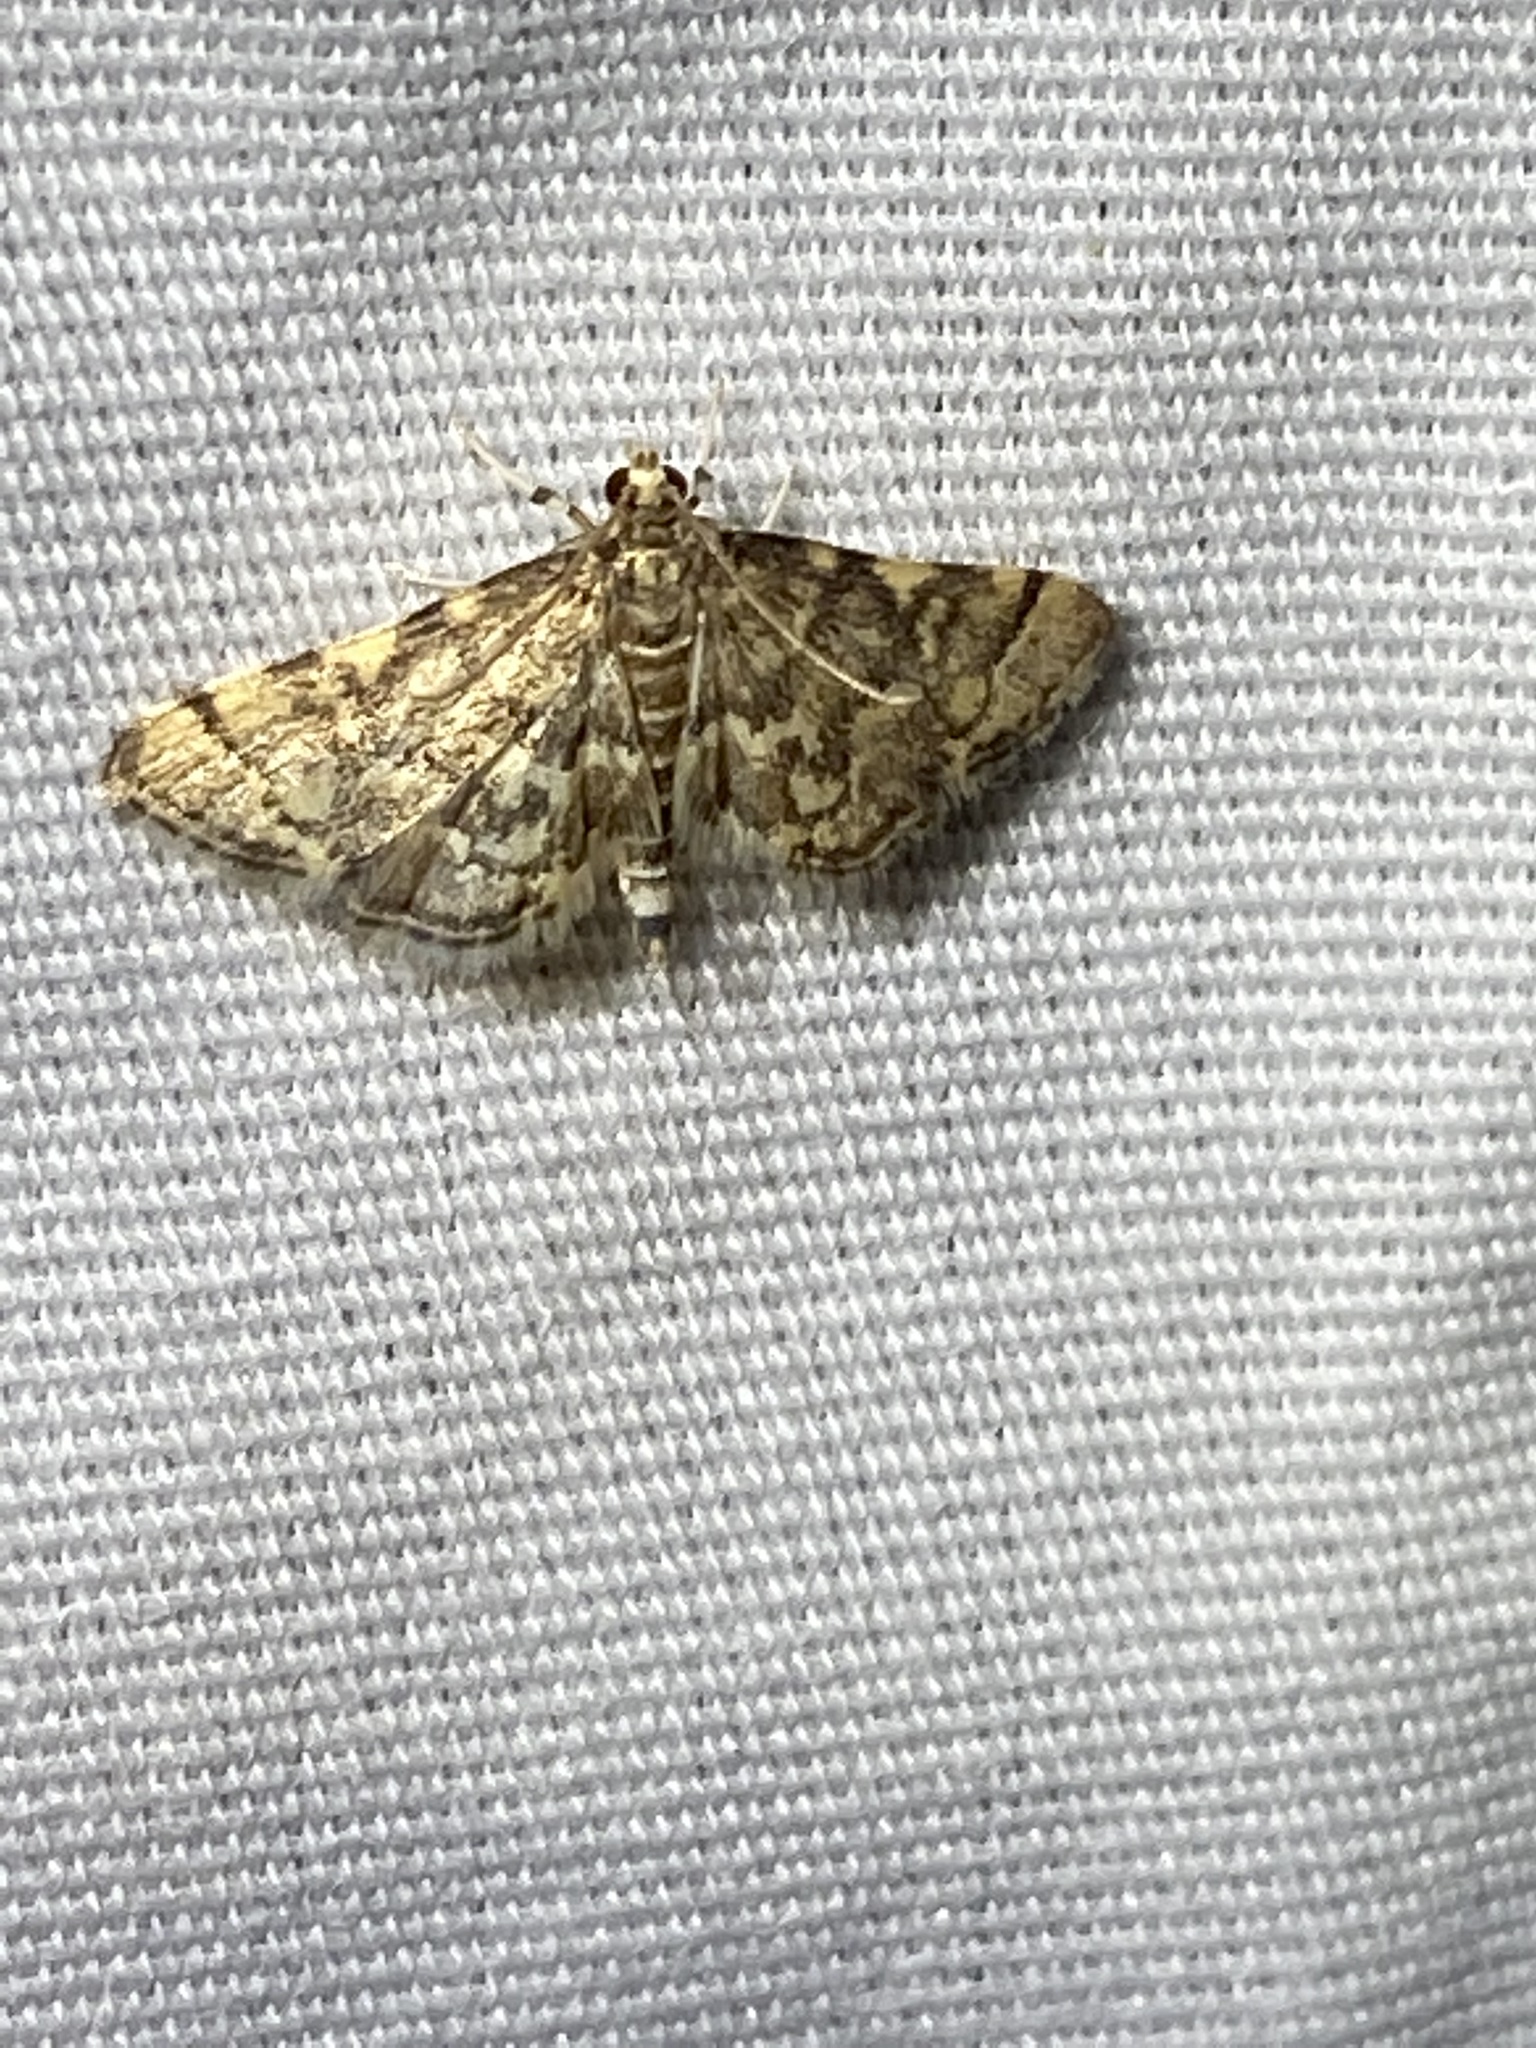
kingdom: Animalia
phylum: Arthropoda
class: Insecta
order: Lepidoptera
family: Crambidae
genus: Anageshna
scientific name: Anageshna primordialis
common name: Yellow-spotted webworm moth
